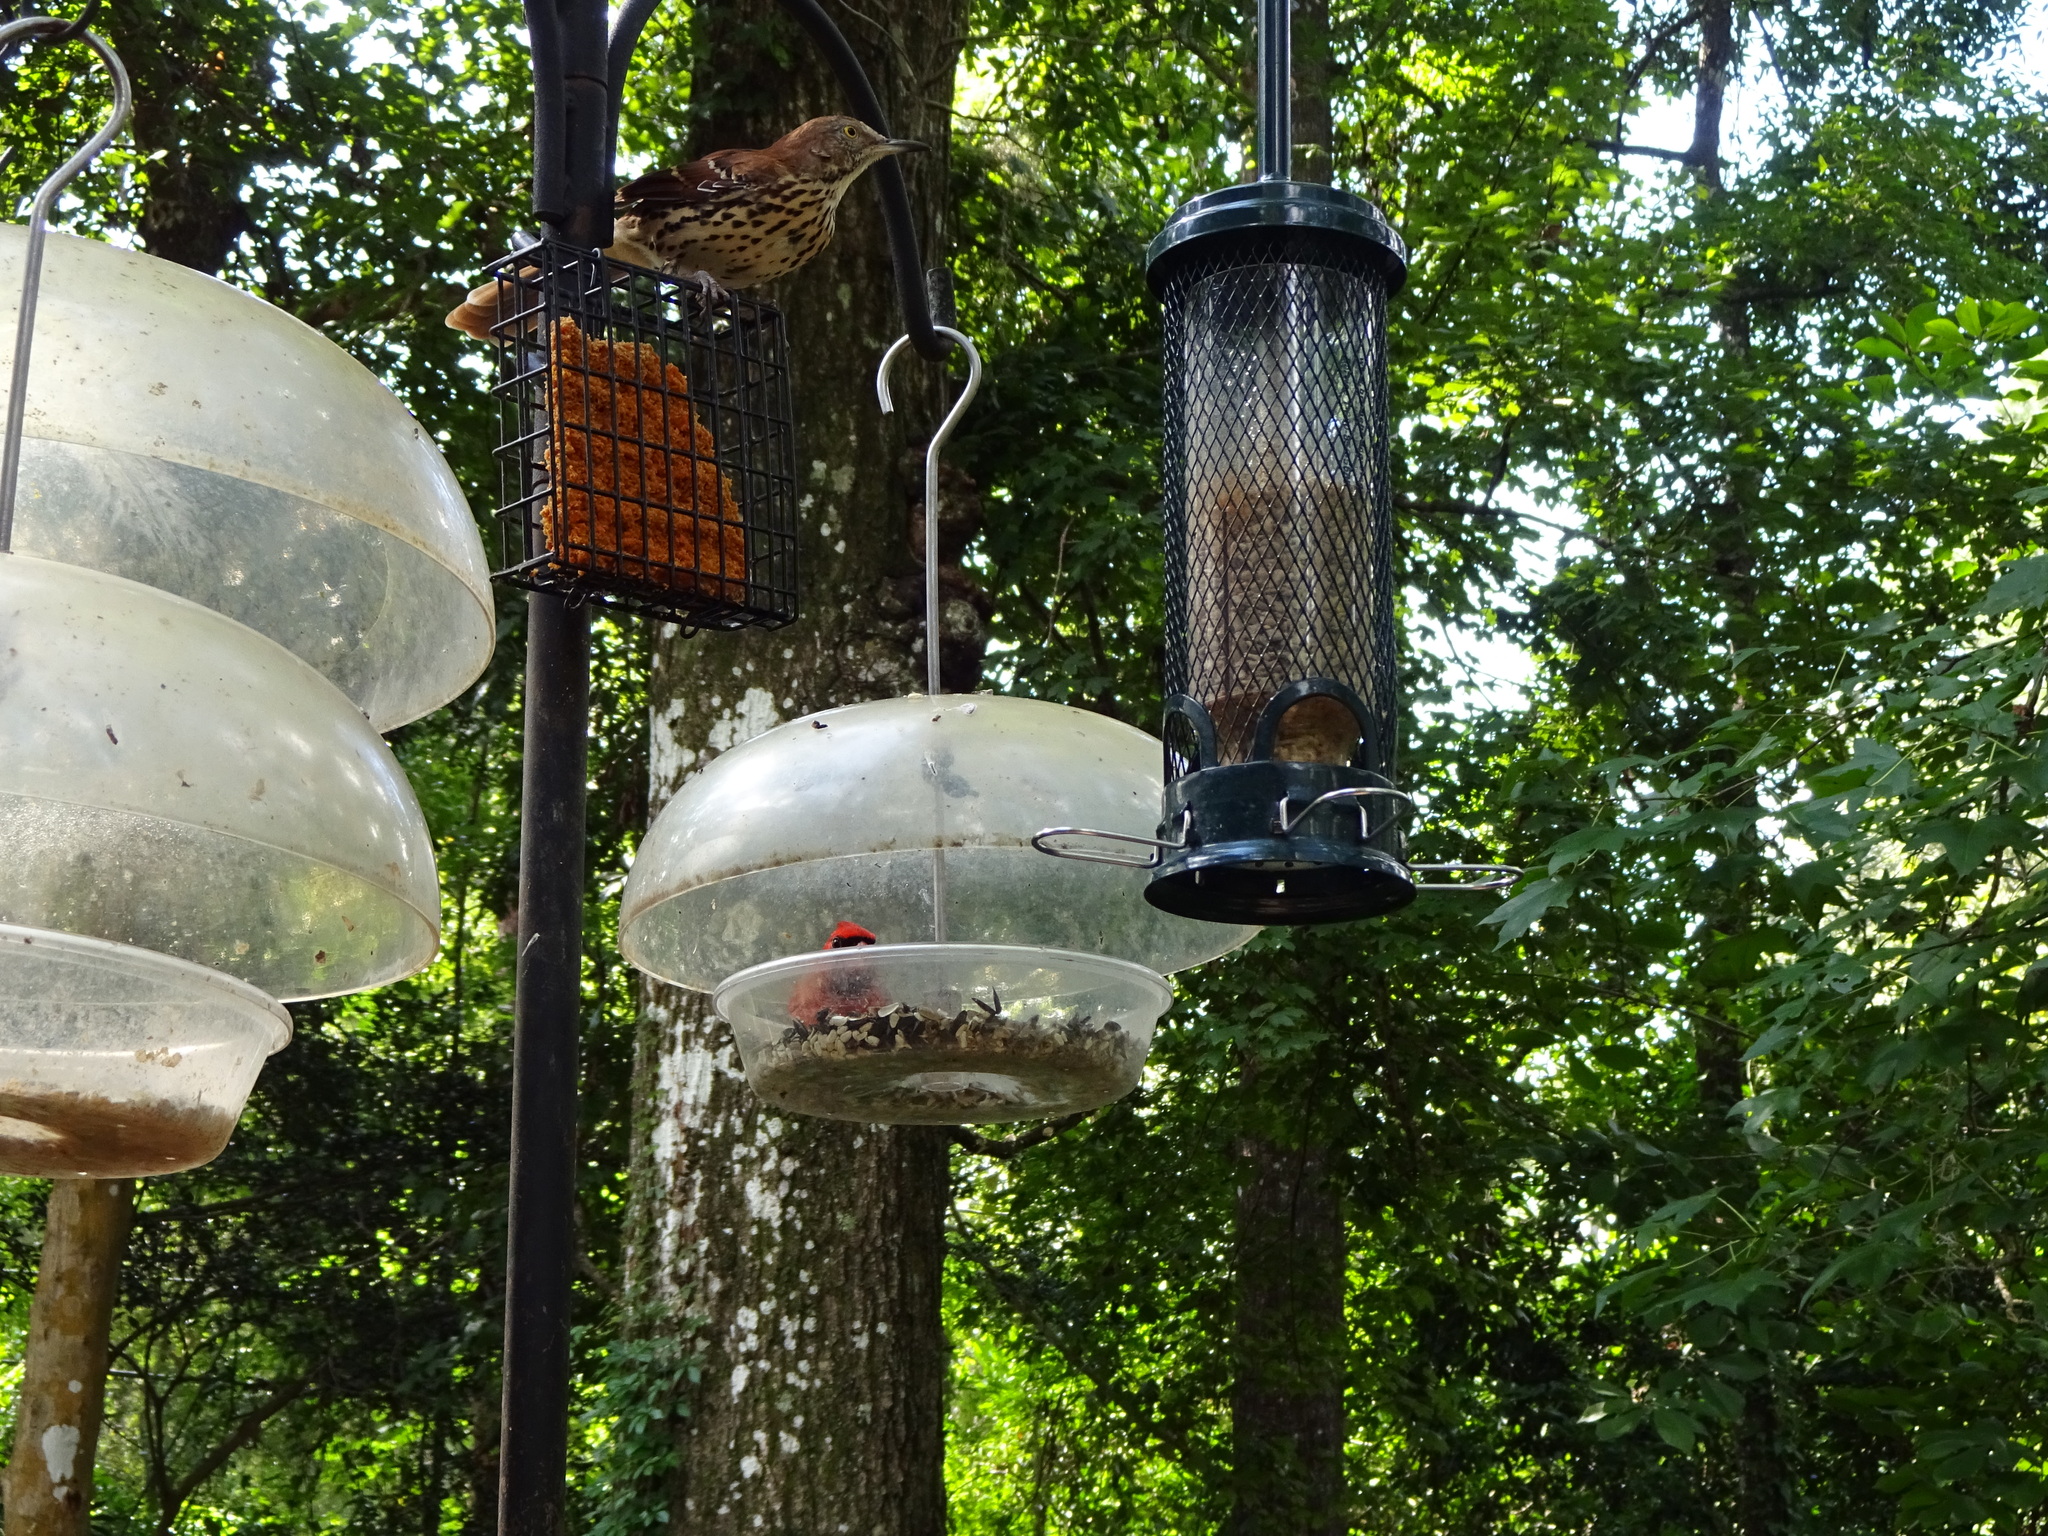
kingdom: Animalia
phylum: Chordata
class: Aves
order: Passeriformes
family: Mimidae
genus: Toxostoma
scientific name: Toxostoma rufum
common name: Brown thrasher
